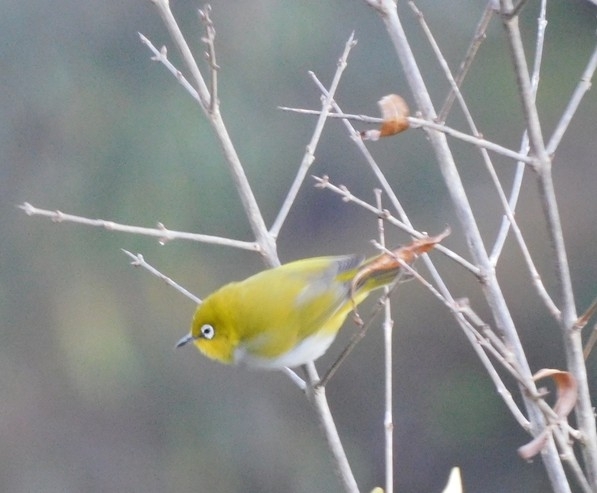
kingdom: Animalia
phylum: Chordata
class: Aves
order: Passeriformes
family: Zosteropidae
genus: Zosterops
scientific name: Zosterops palpebrosus
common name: Oriental white-eye
